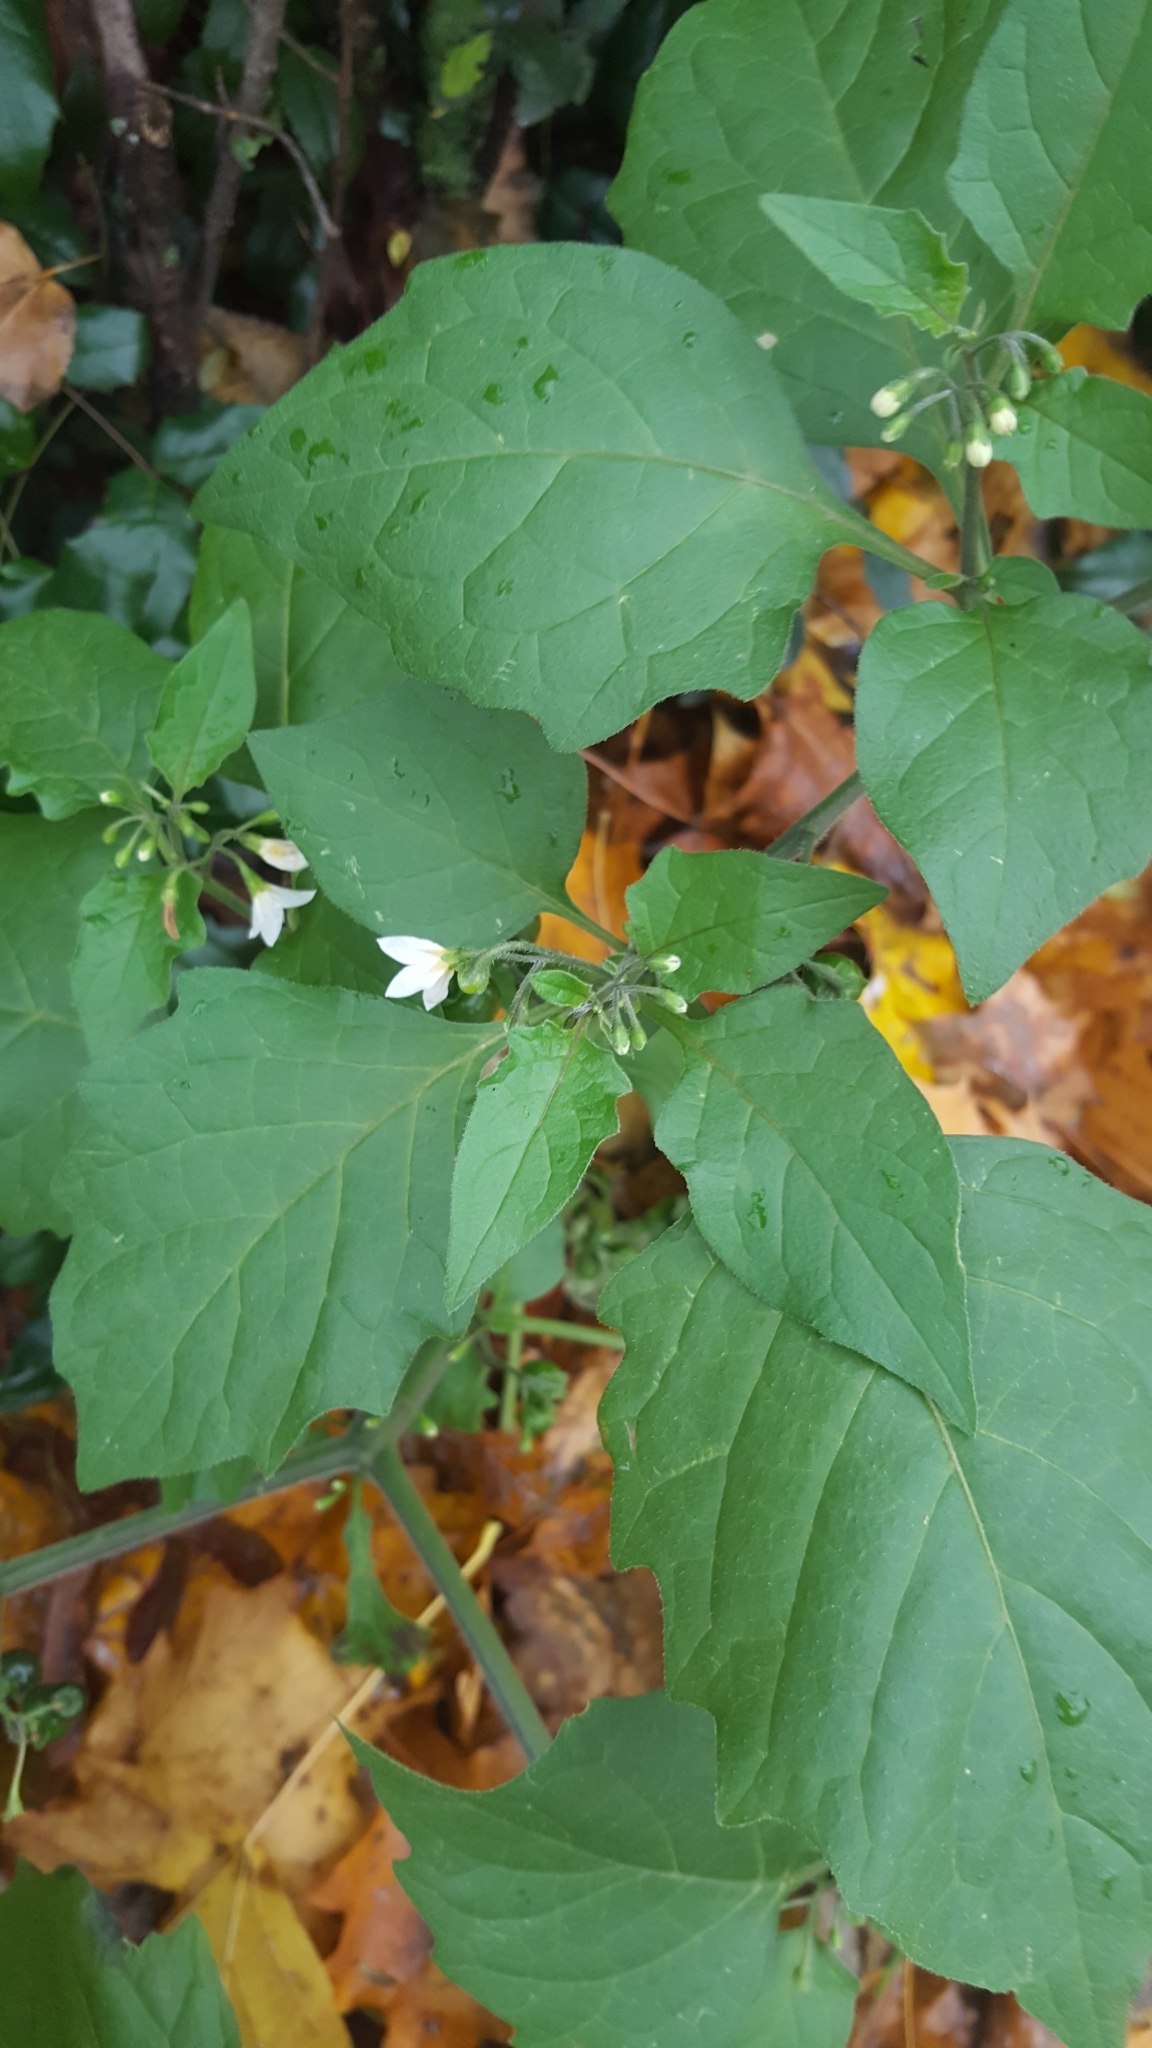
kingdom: Plantae
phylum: Tracheophyta
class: Magnoliopsida
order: Solanales
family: Solanaceae
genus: Solanum
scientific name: Solanum nigrum
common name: Black nightshade
